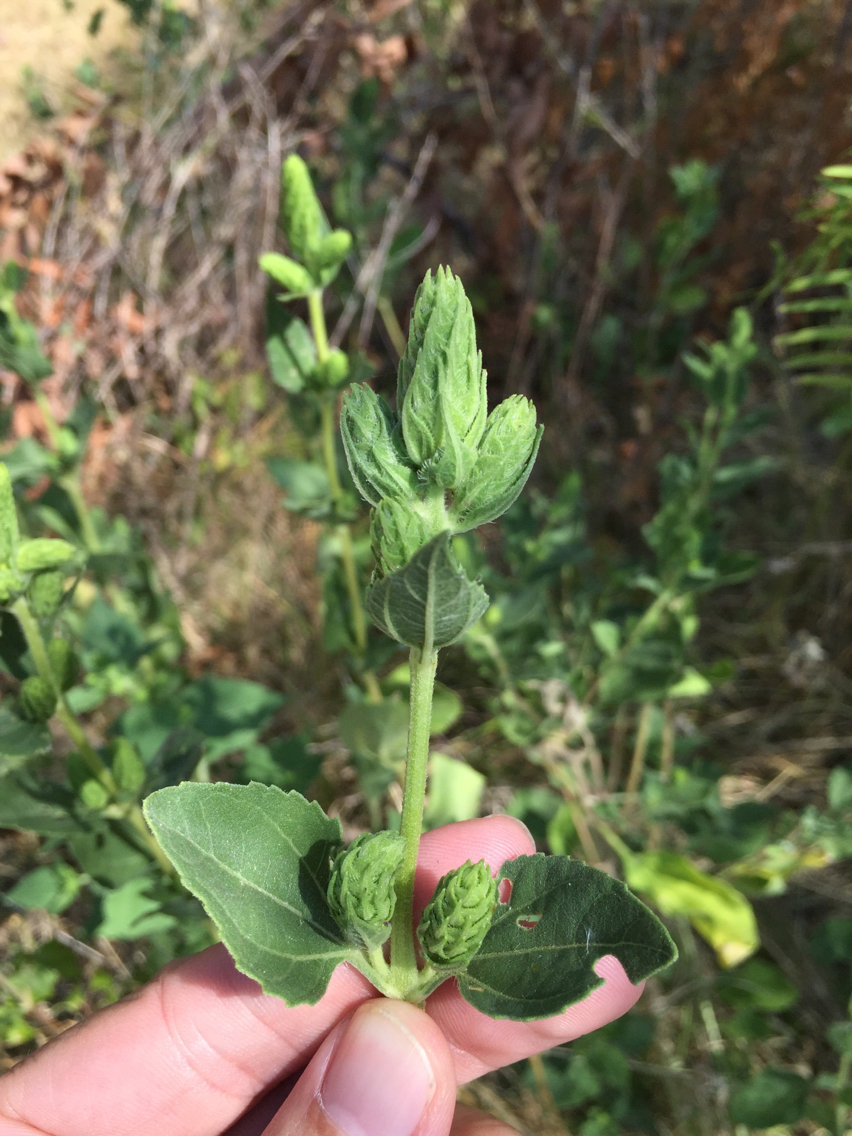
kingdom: Plantae
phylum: Tracheophyta
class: Magnoliopsida
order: Asterales
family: Asteraceae
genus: Iva
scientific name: Iva annua
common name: Marsh-elder
